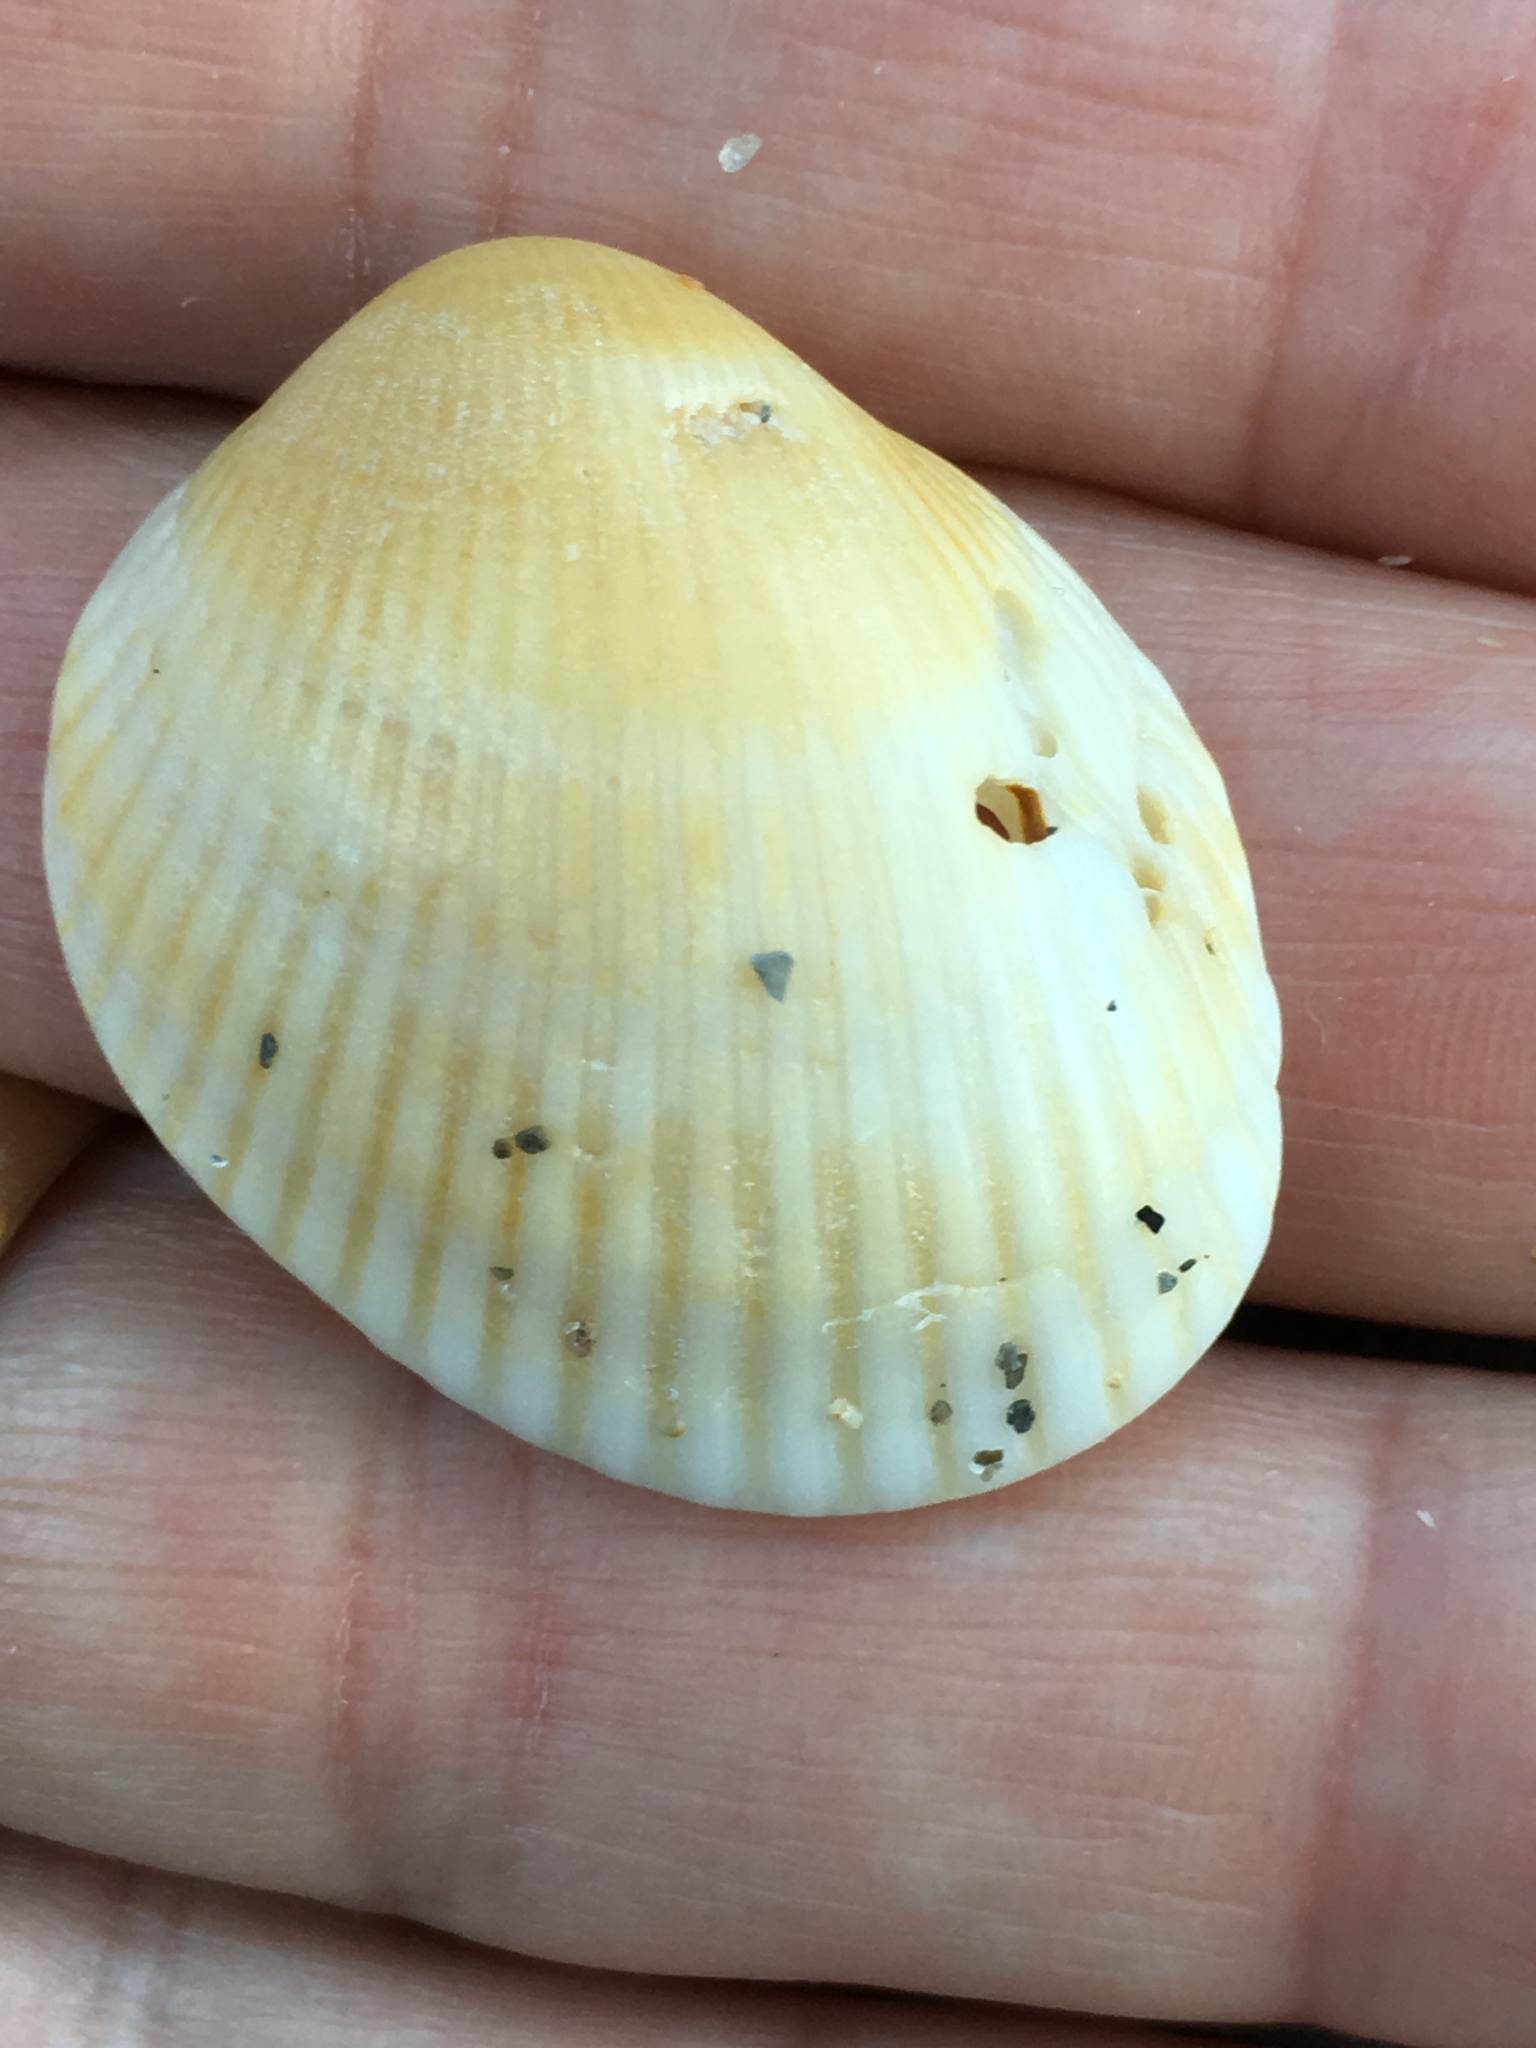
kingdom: Animalia
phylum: Mollusca
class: Bivalvia
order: Arcida
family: Arcidae
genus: Lunarca
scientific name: Lunarca ovalis
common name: Blood ark
